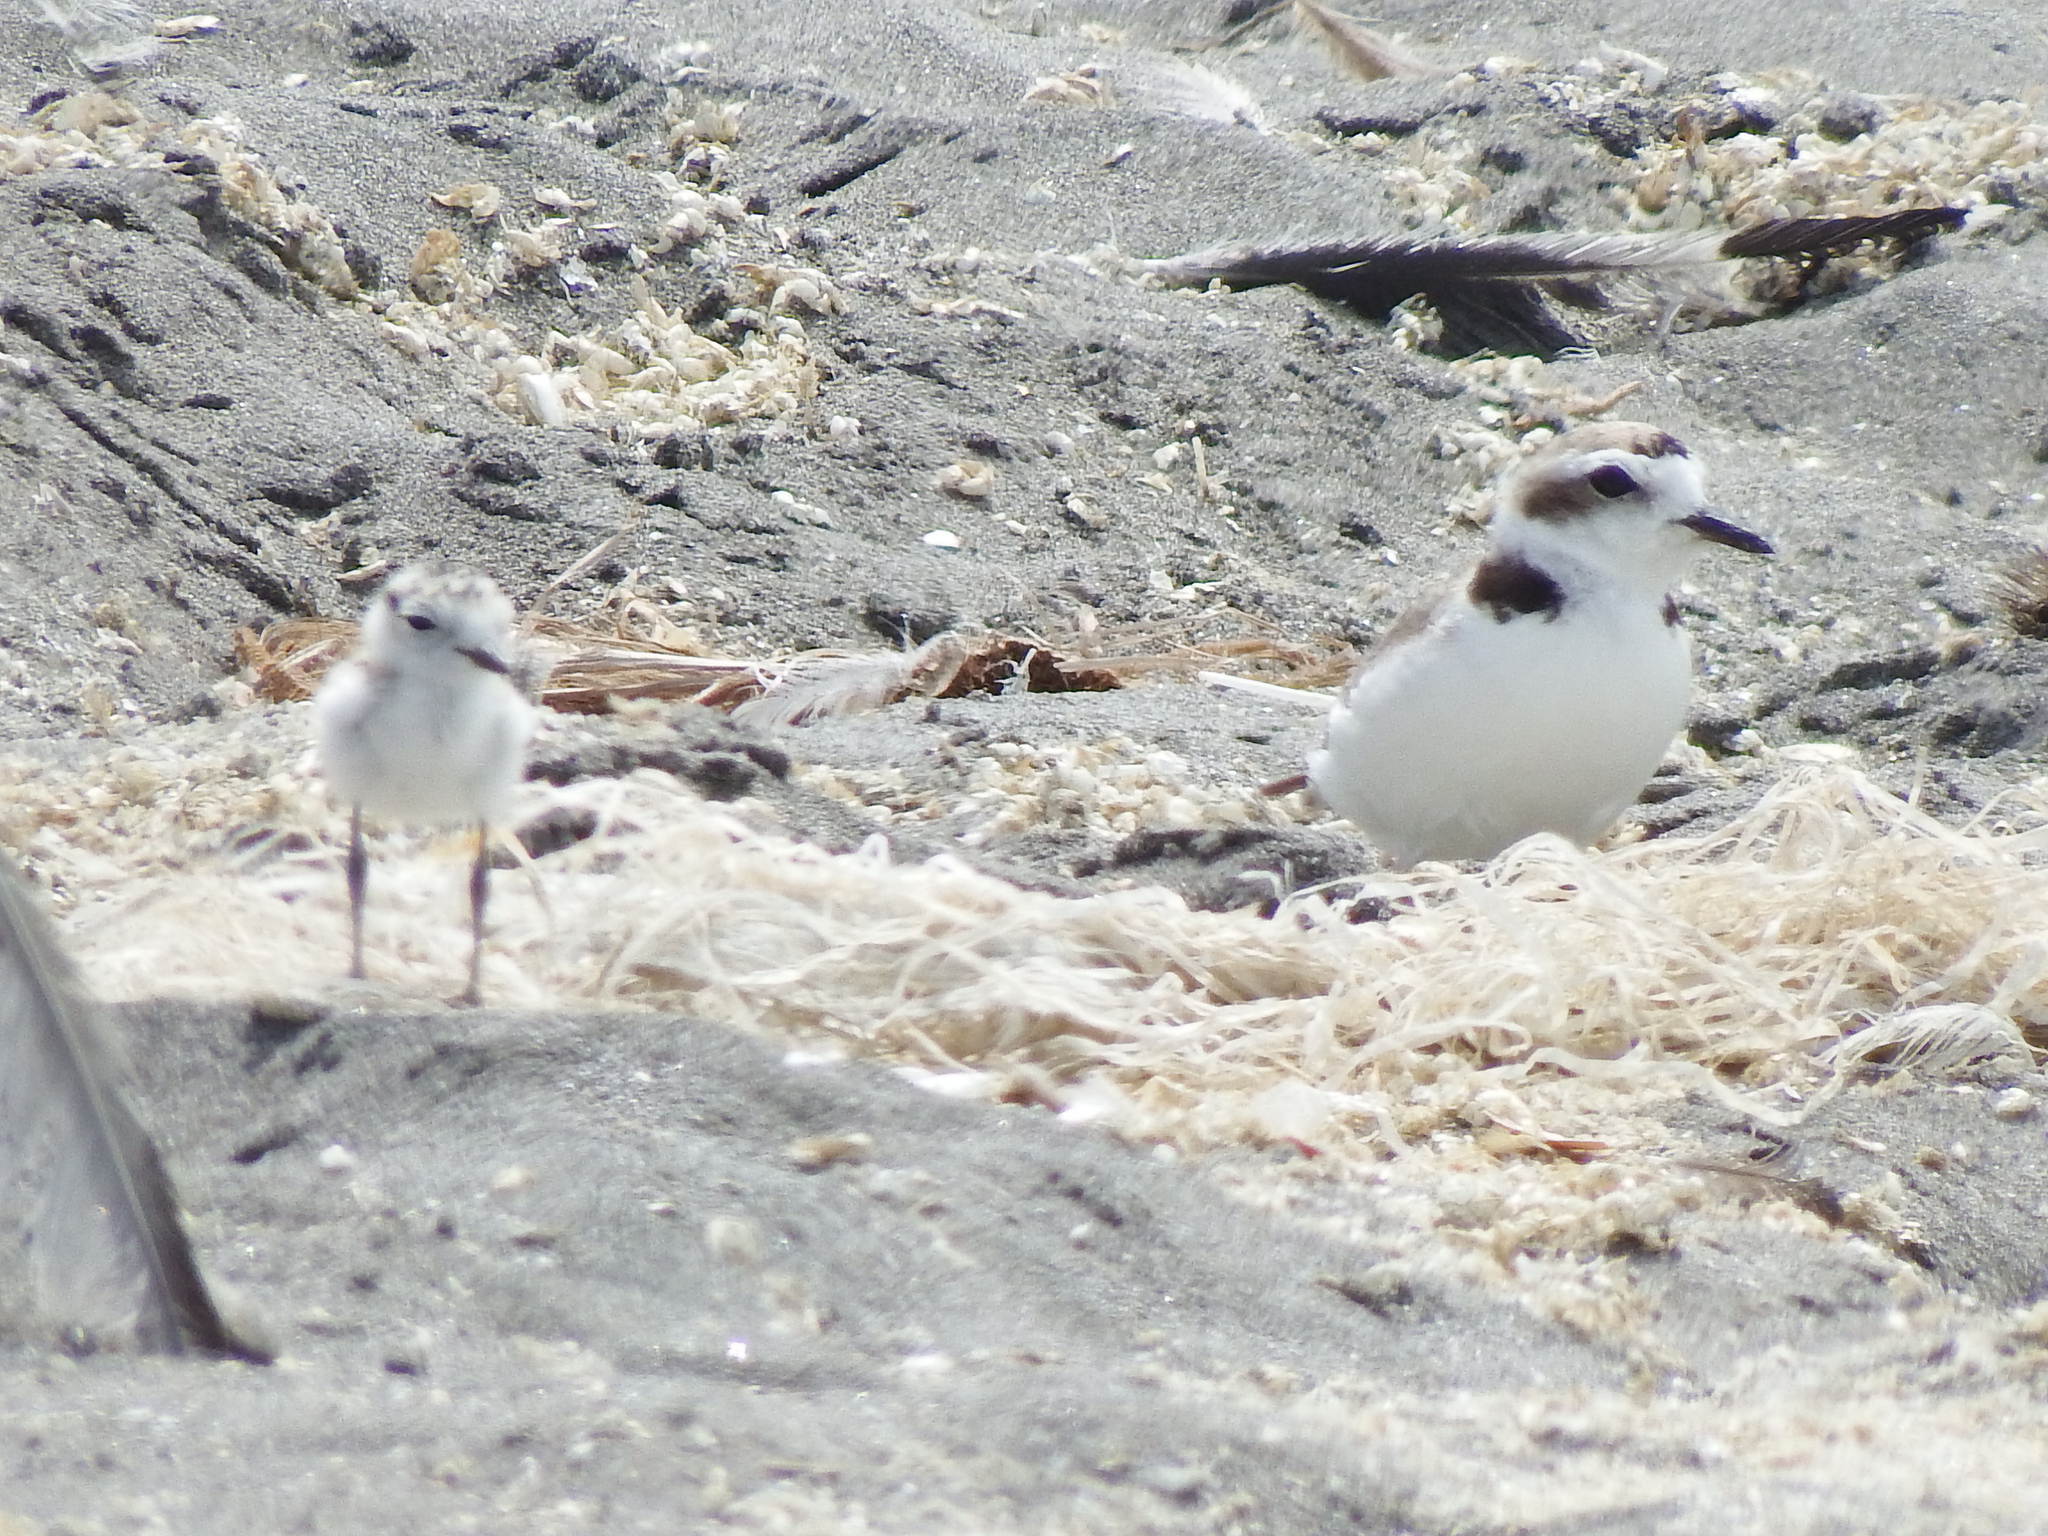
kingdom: Animalia
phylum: Chordata
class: Aves
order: Charadriiformes
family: Charadriidae
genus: Anarhynchus
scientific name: Anarhynchus
